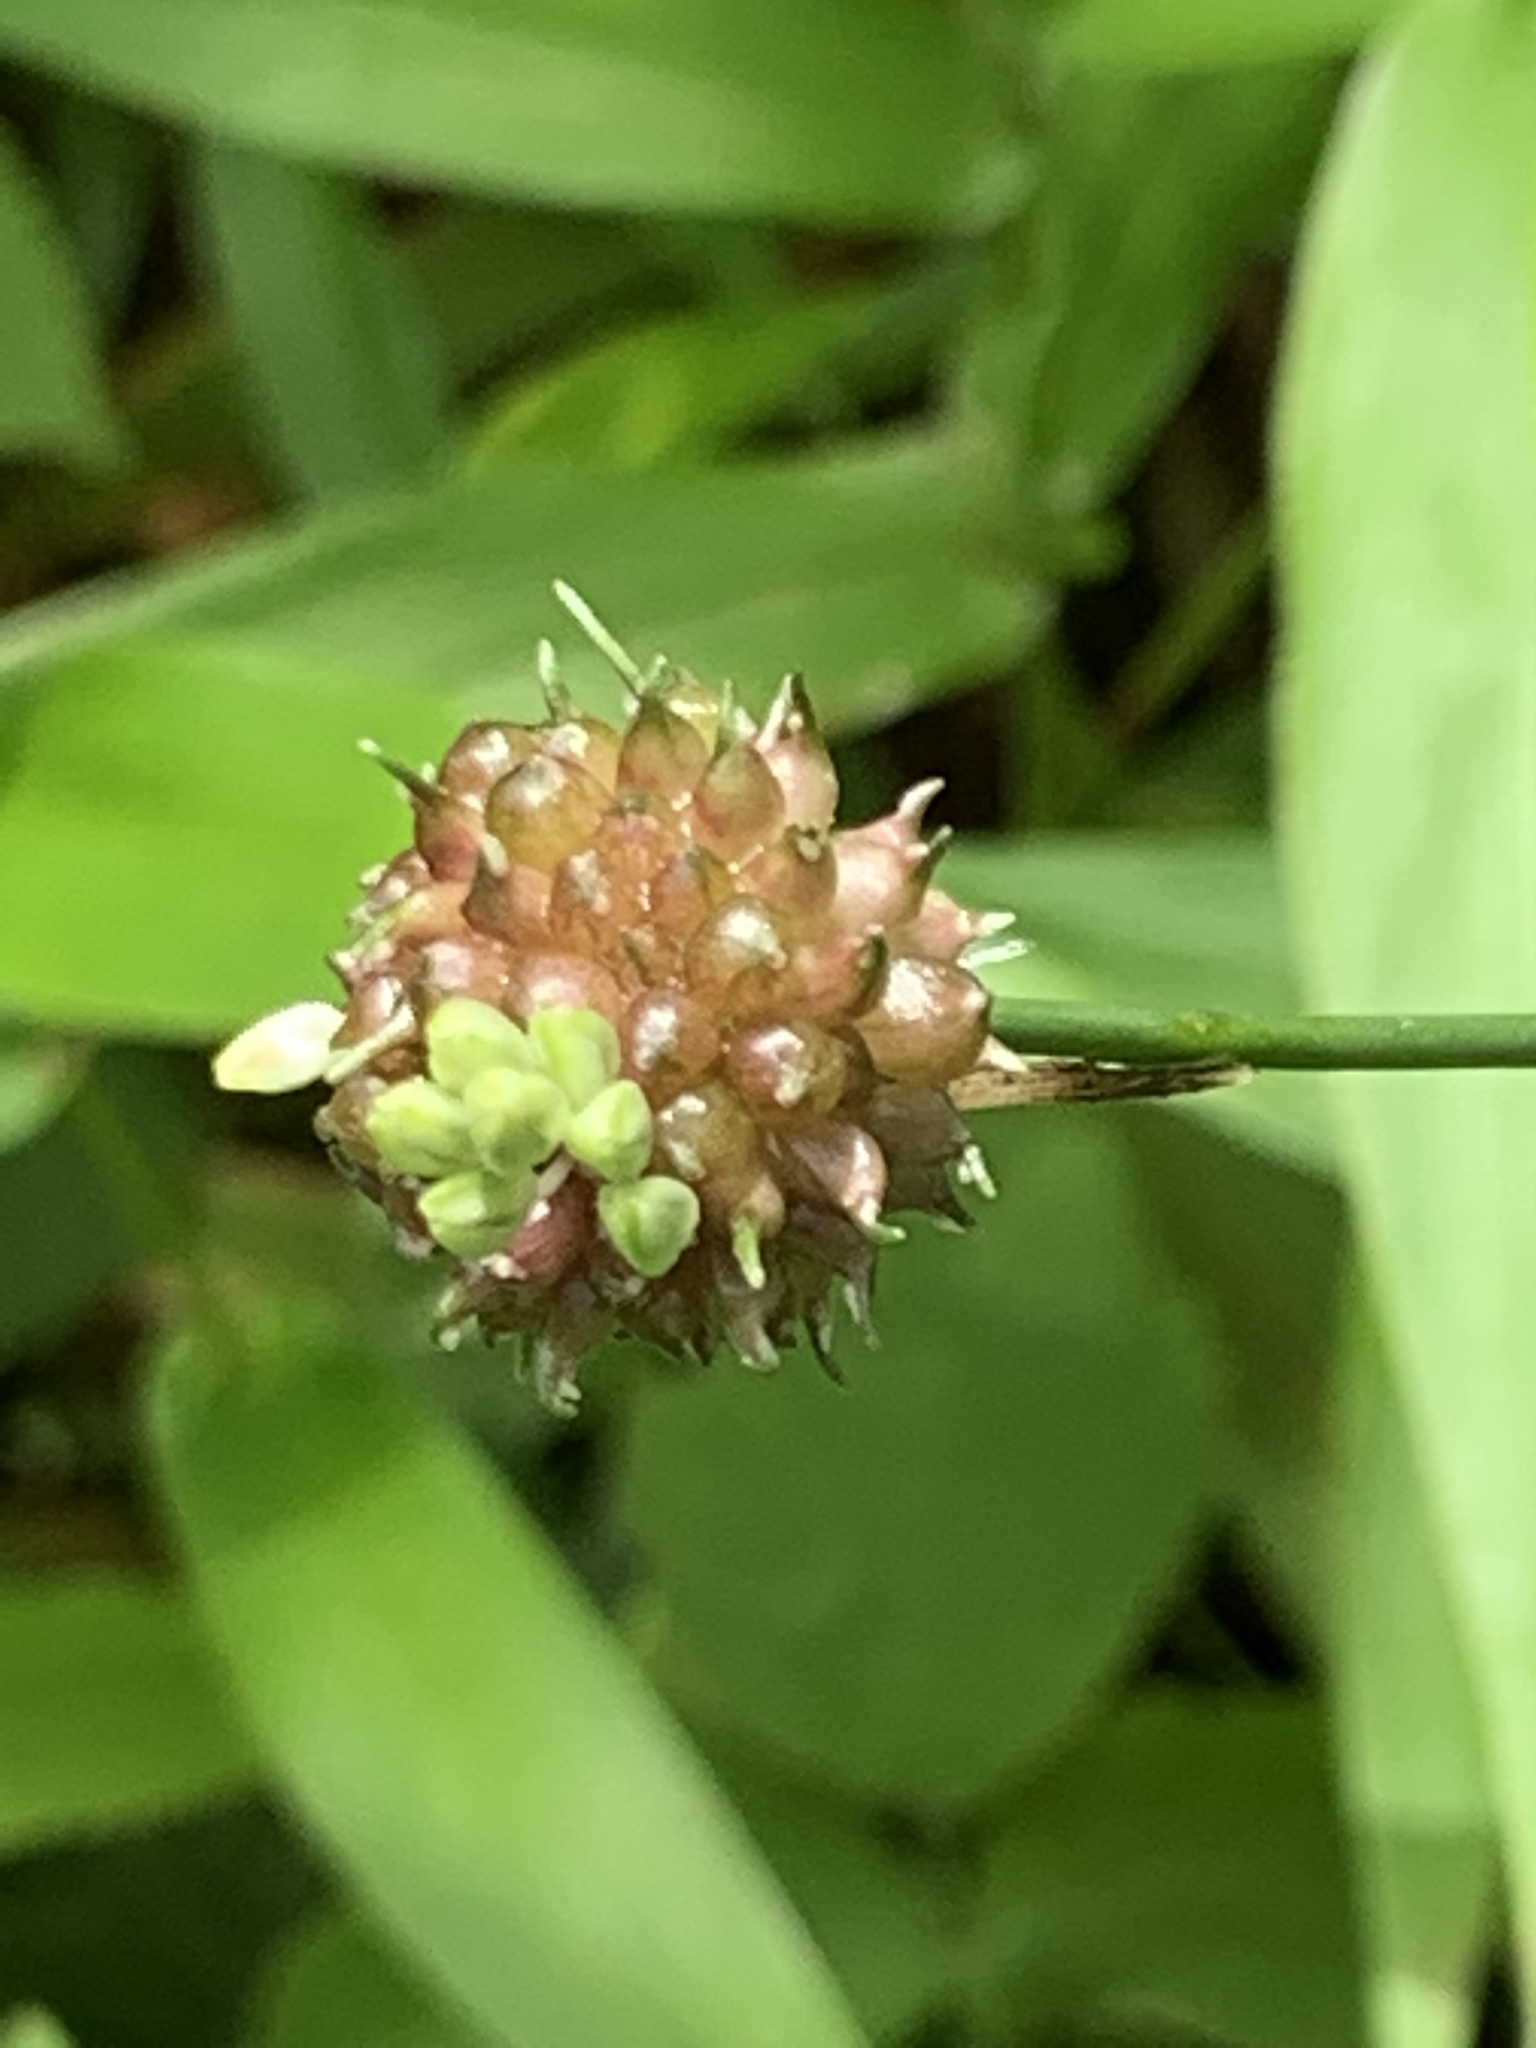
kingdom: Plantae
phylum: Tracheophyta
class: Liliopsida
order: Asparagales
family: Amaryllidaceae
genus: Allium
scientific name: Allium vineale
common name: Crow garlic
